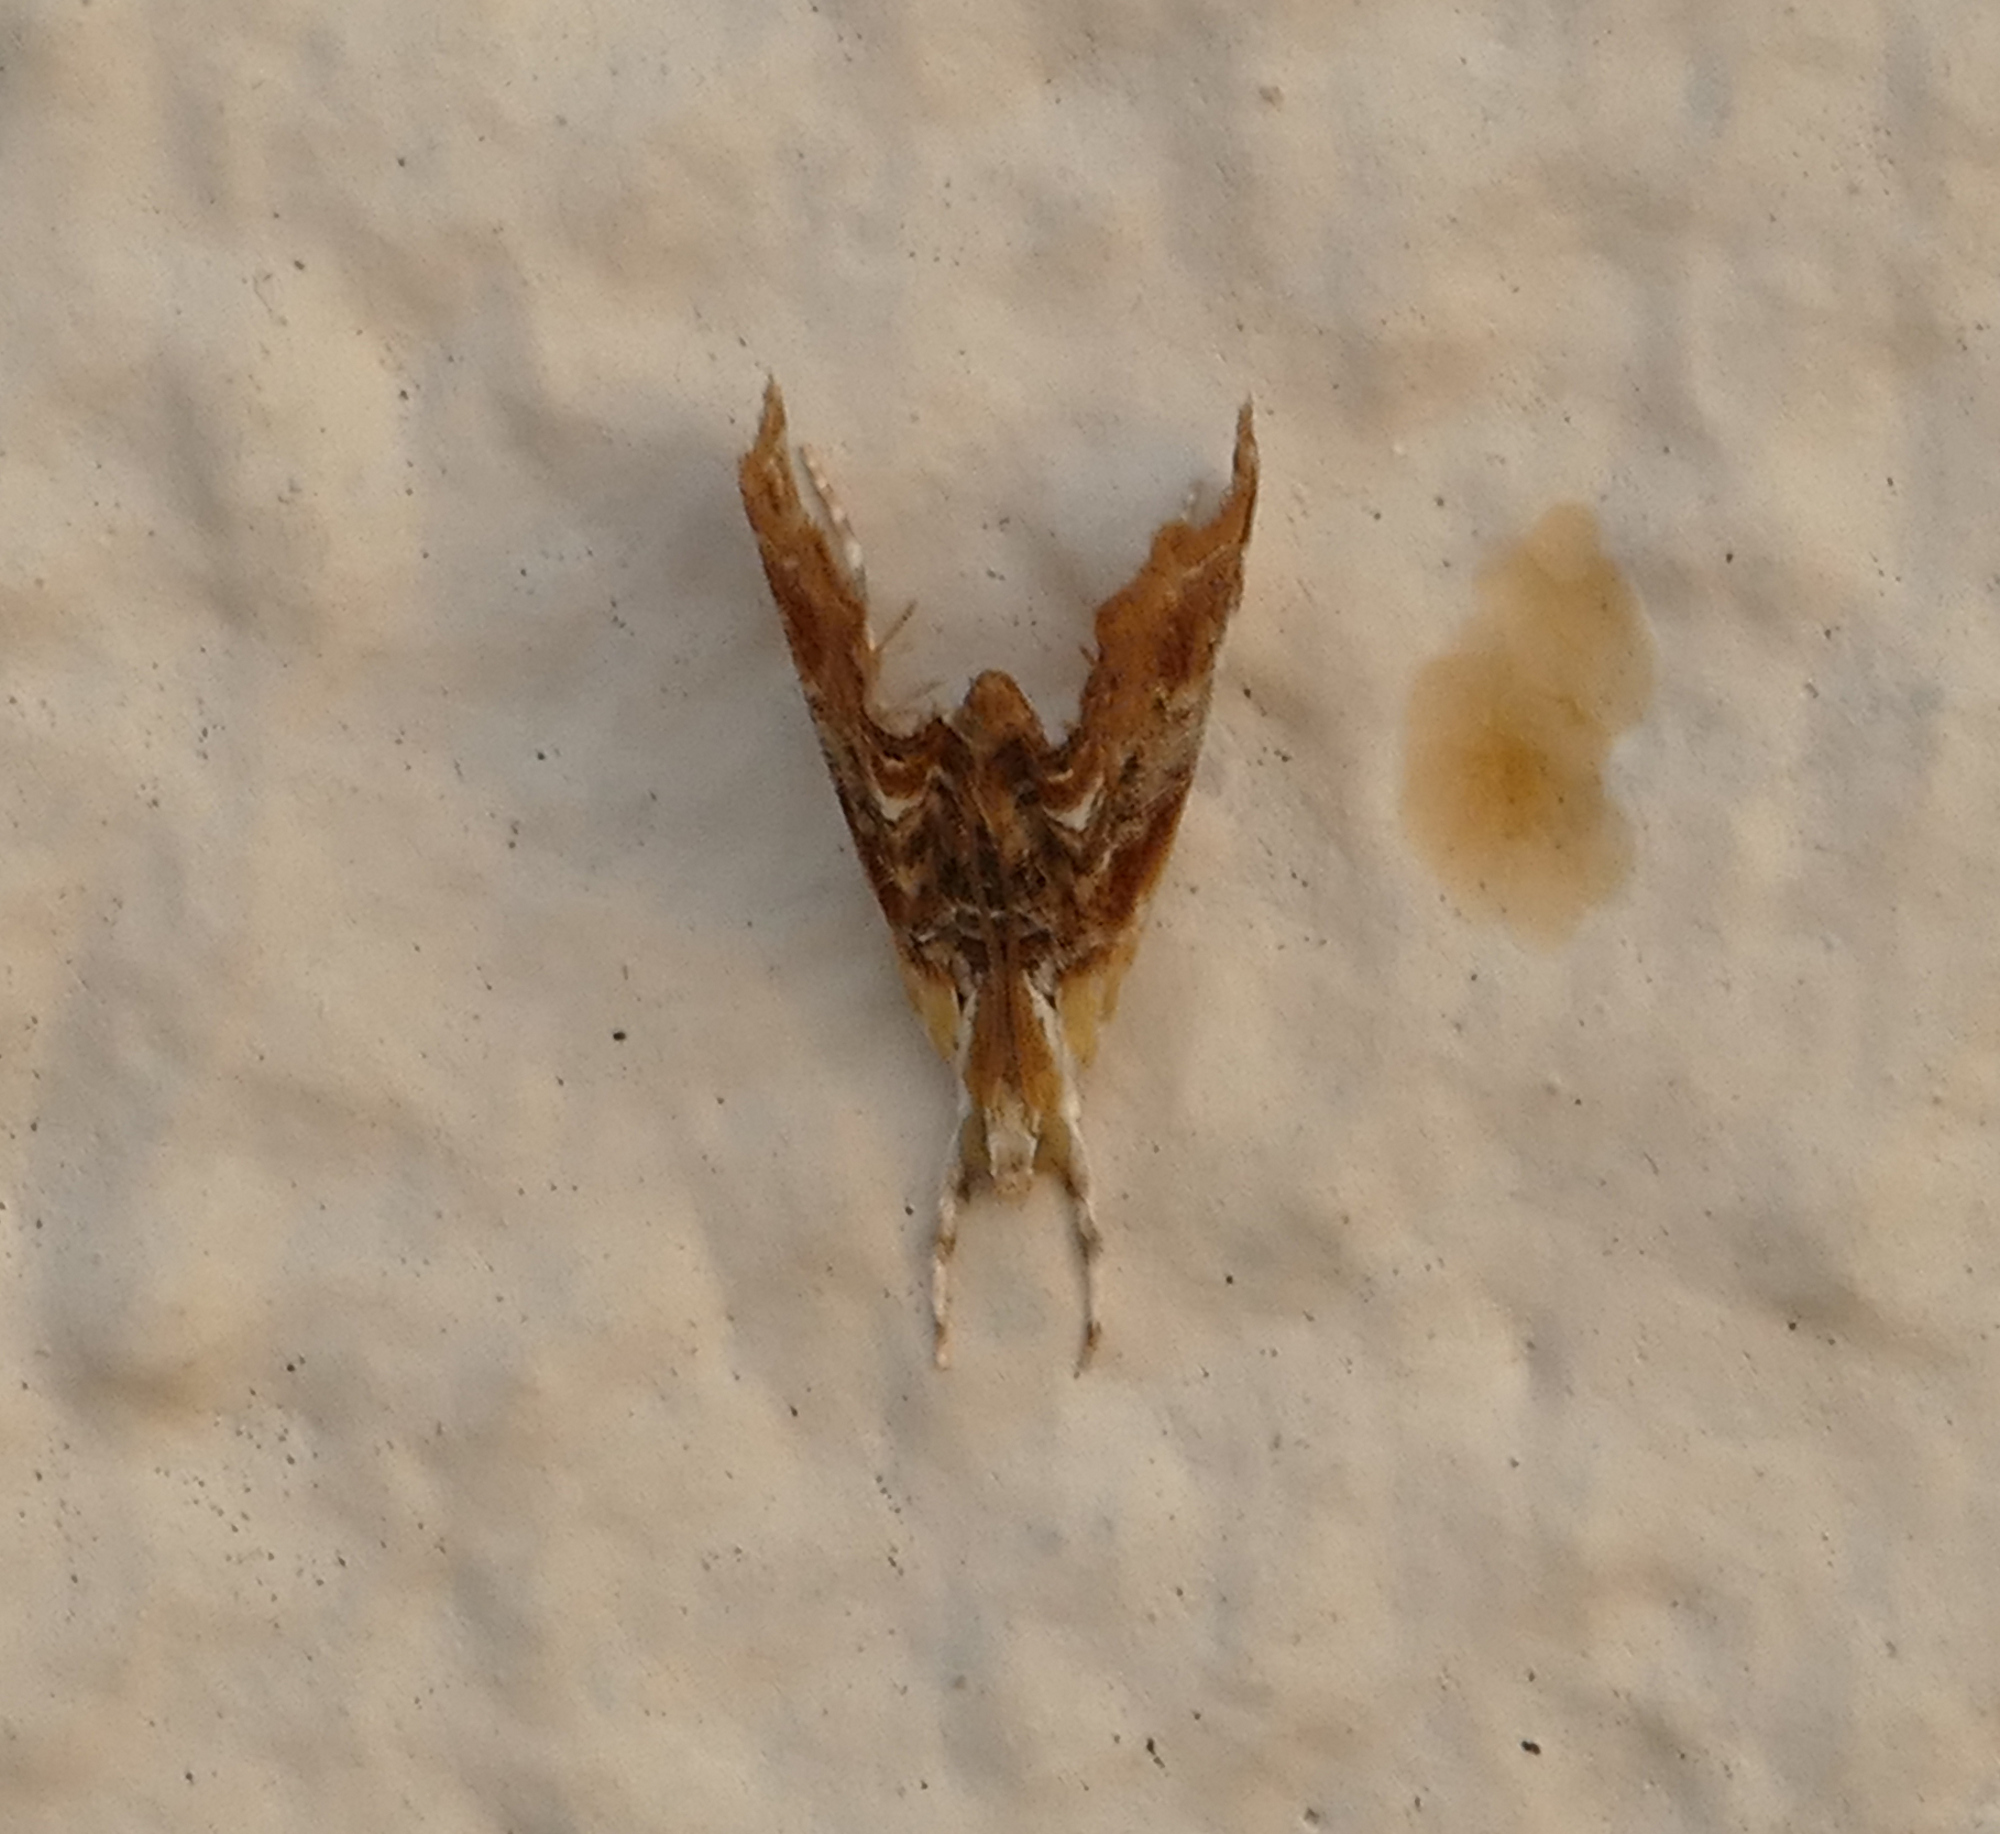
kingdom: Animalia
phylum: Arthropoda
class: Insecta
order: Lepidoptera
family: Crambidae
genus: Dicymolomia
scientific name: Dicymolomia julianalis
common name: Julia's dicymolomia moth
